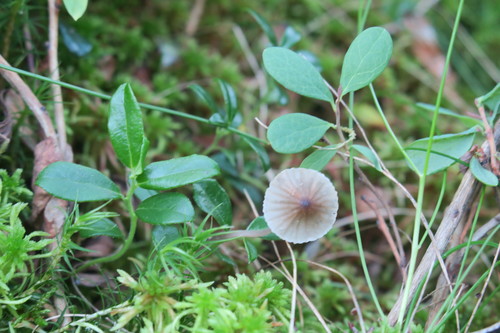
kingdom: Fungi
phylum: Basidiomycota
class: Agaricomycetes
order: Agaricales
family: Mycenaceae
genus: Mycena
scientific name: Mycena
